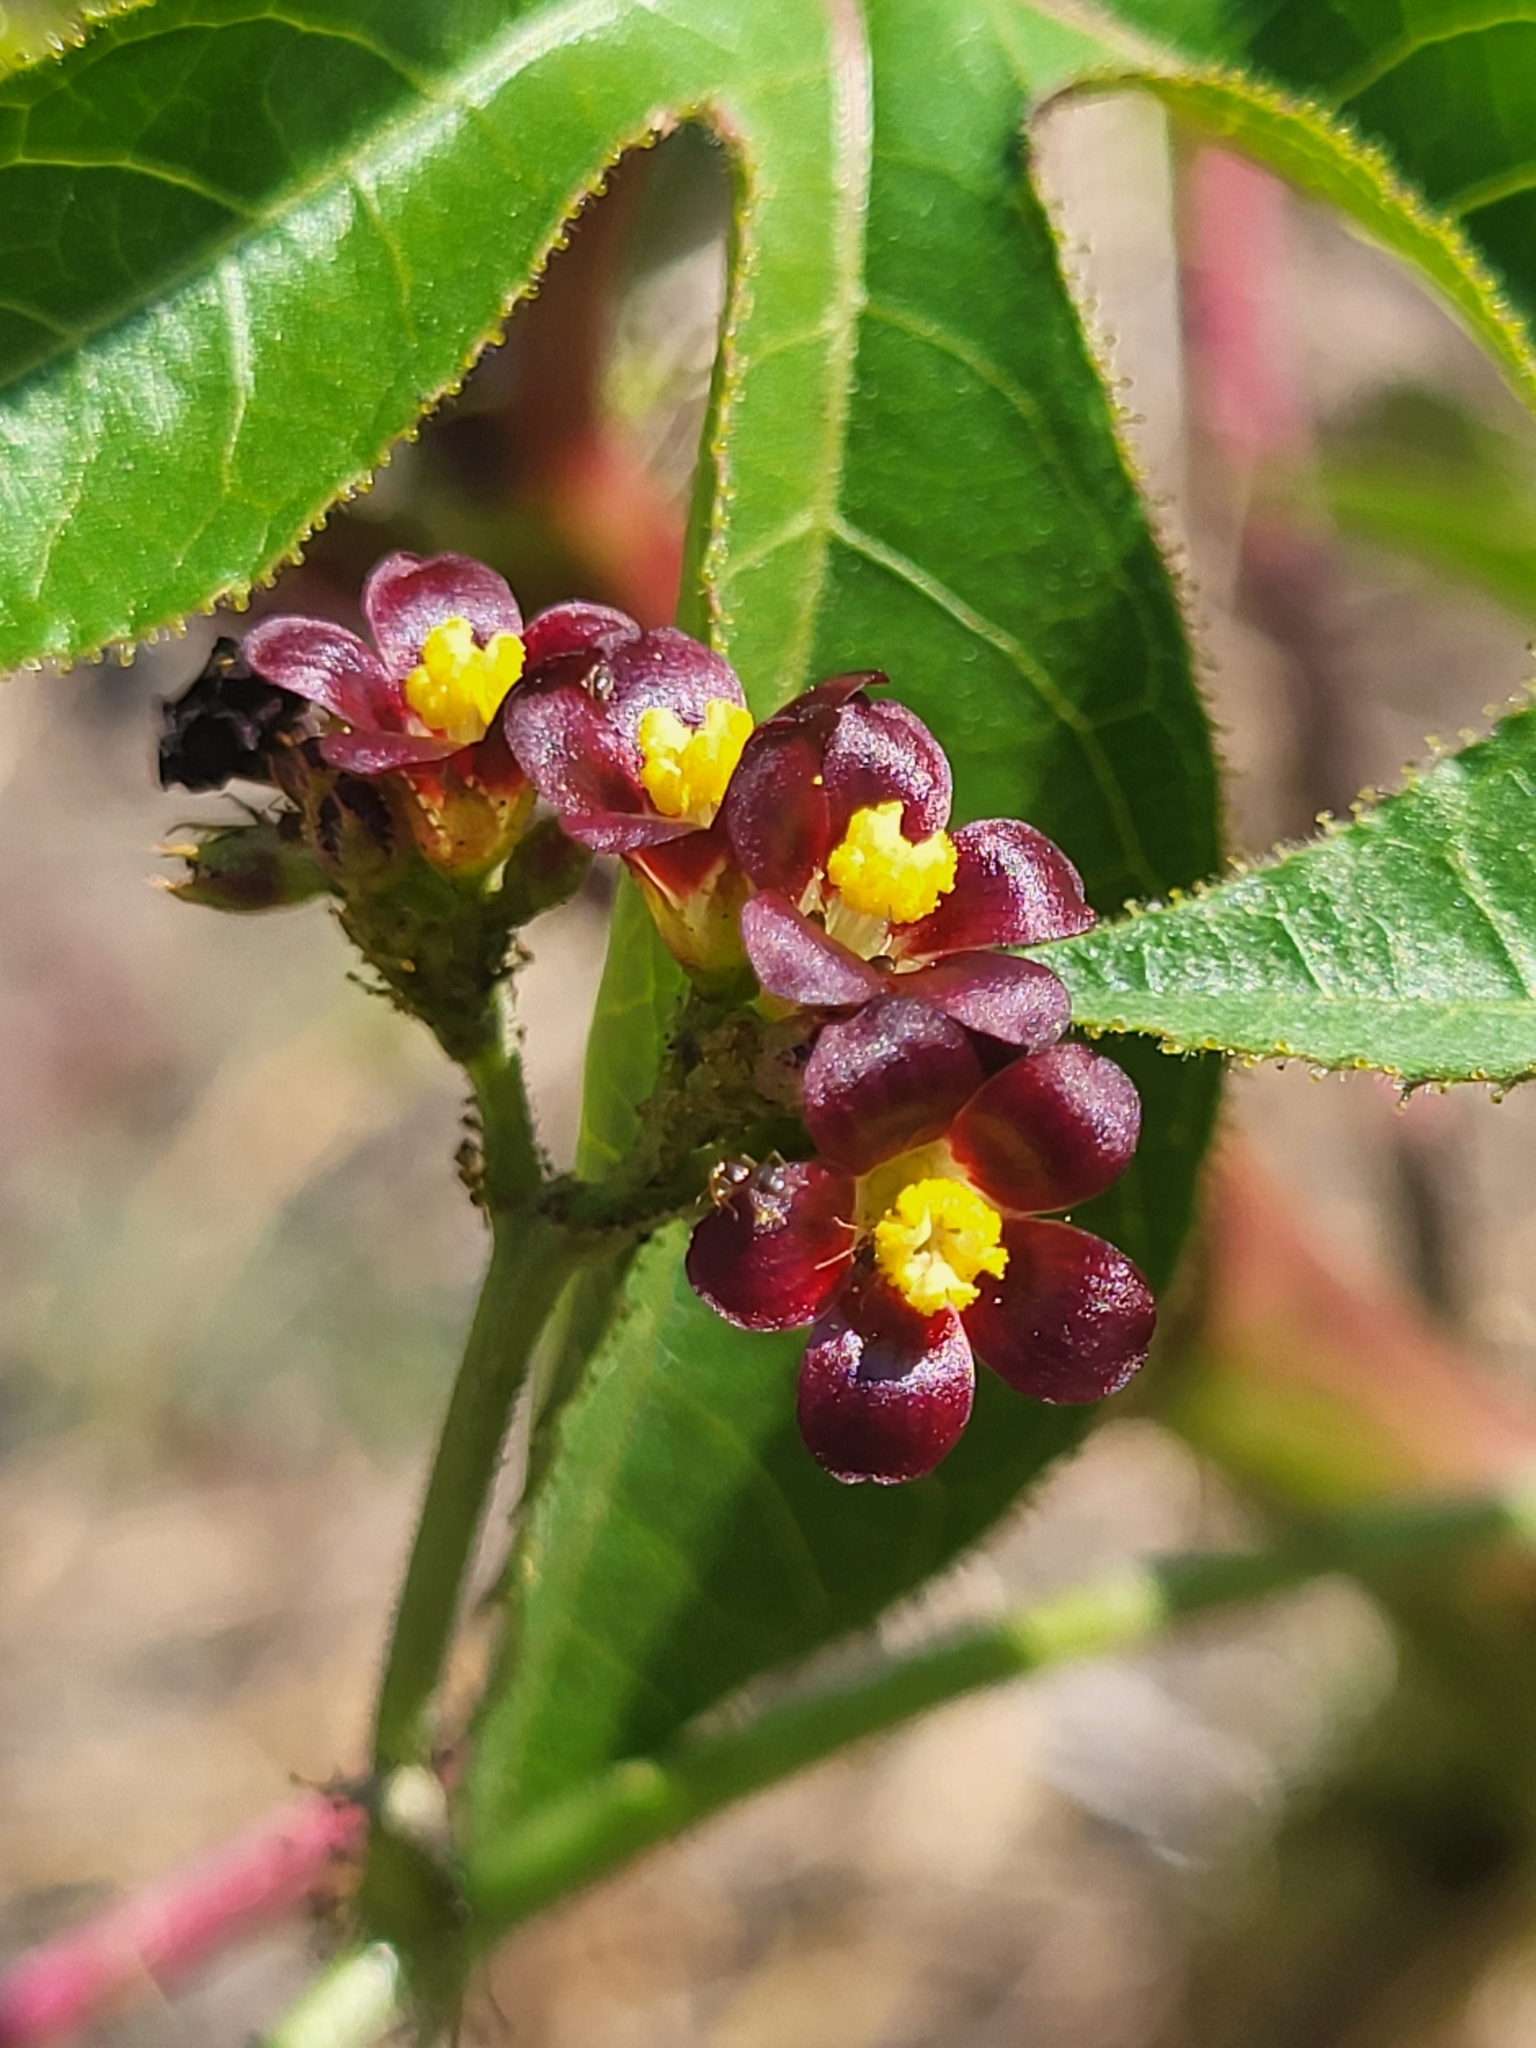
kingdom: Plantae
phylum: Tracheophyta
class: Magnoliopsida
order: Malpighiales
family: Euphorbiaceae
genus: Jatropha
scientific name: Jatropha gossypiifolia
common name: Bellyache bush
